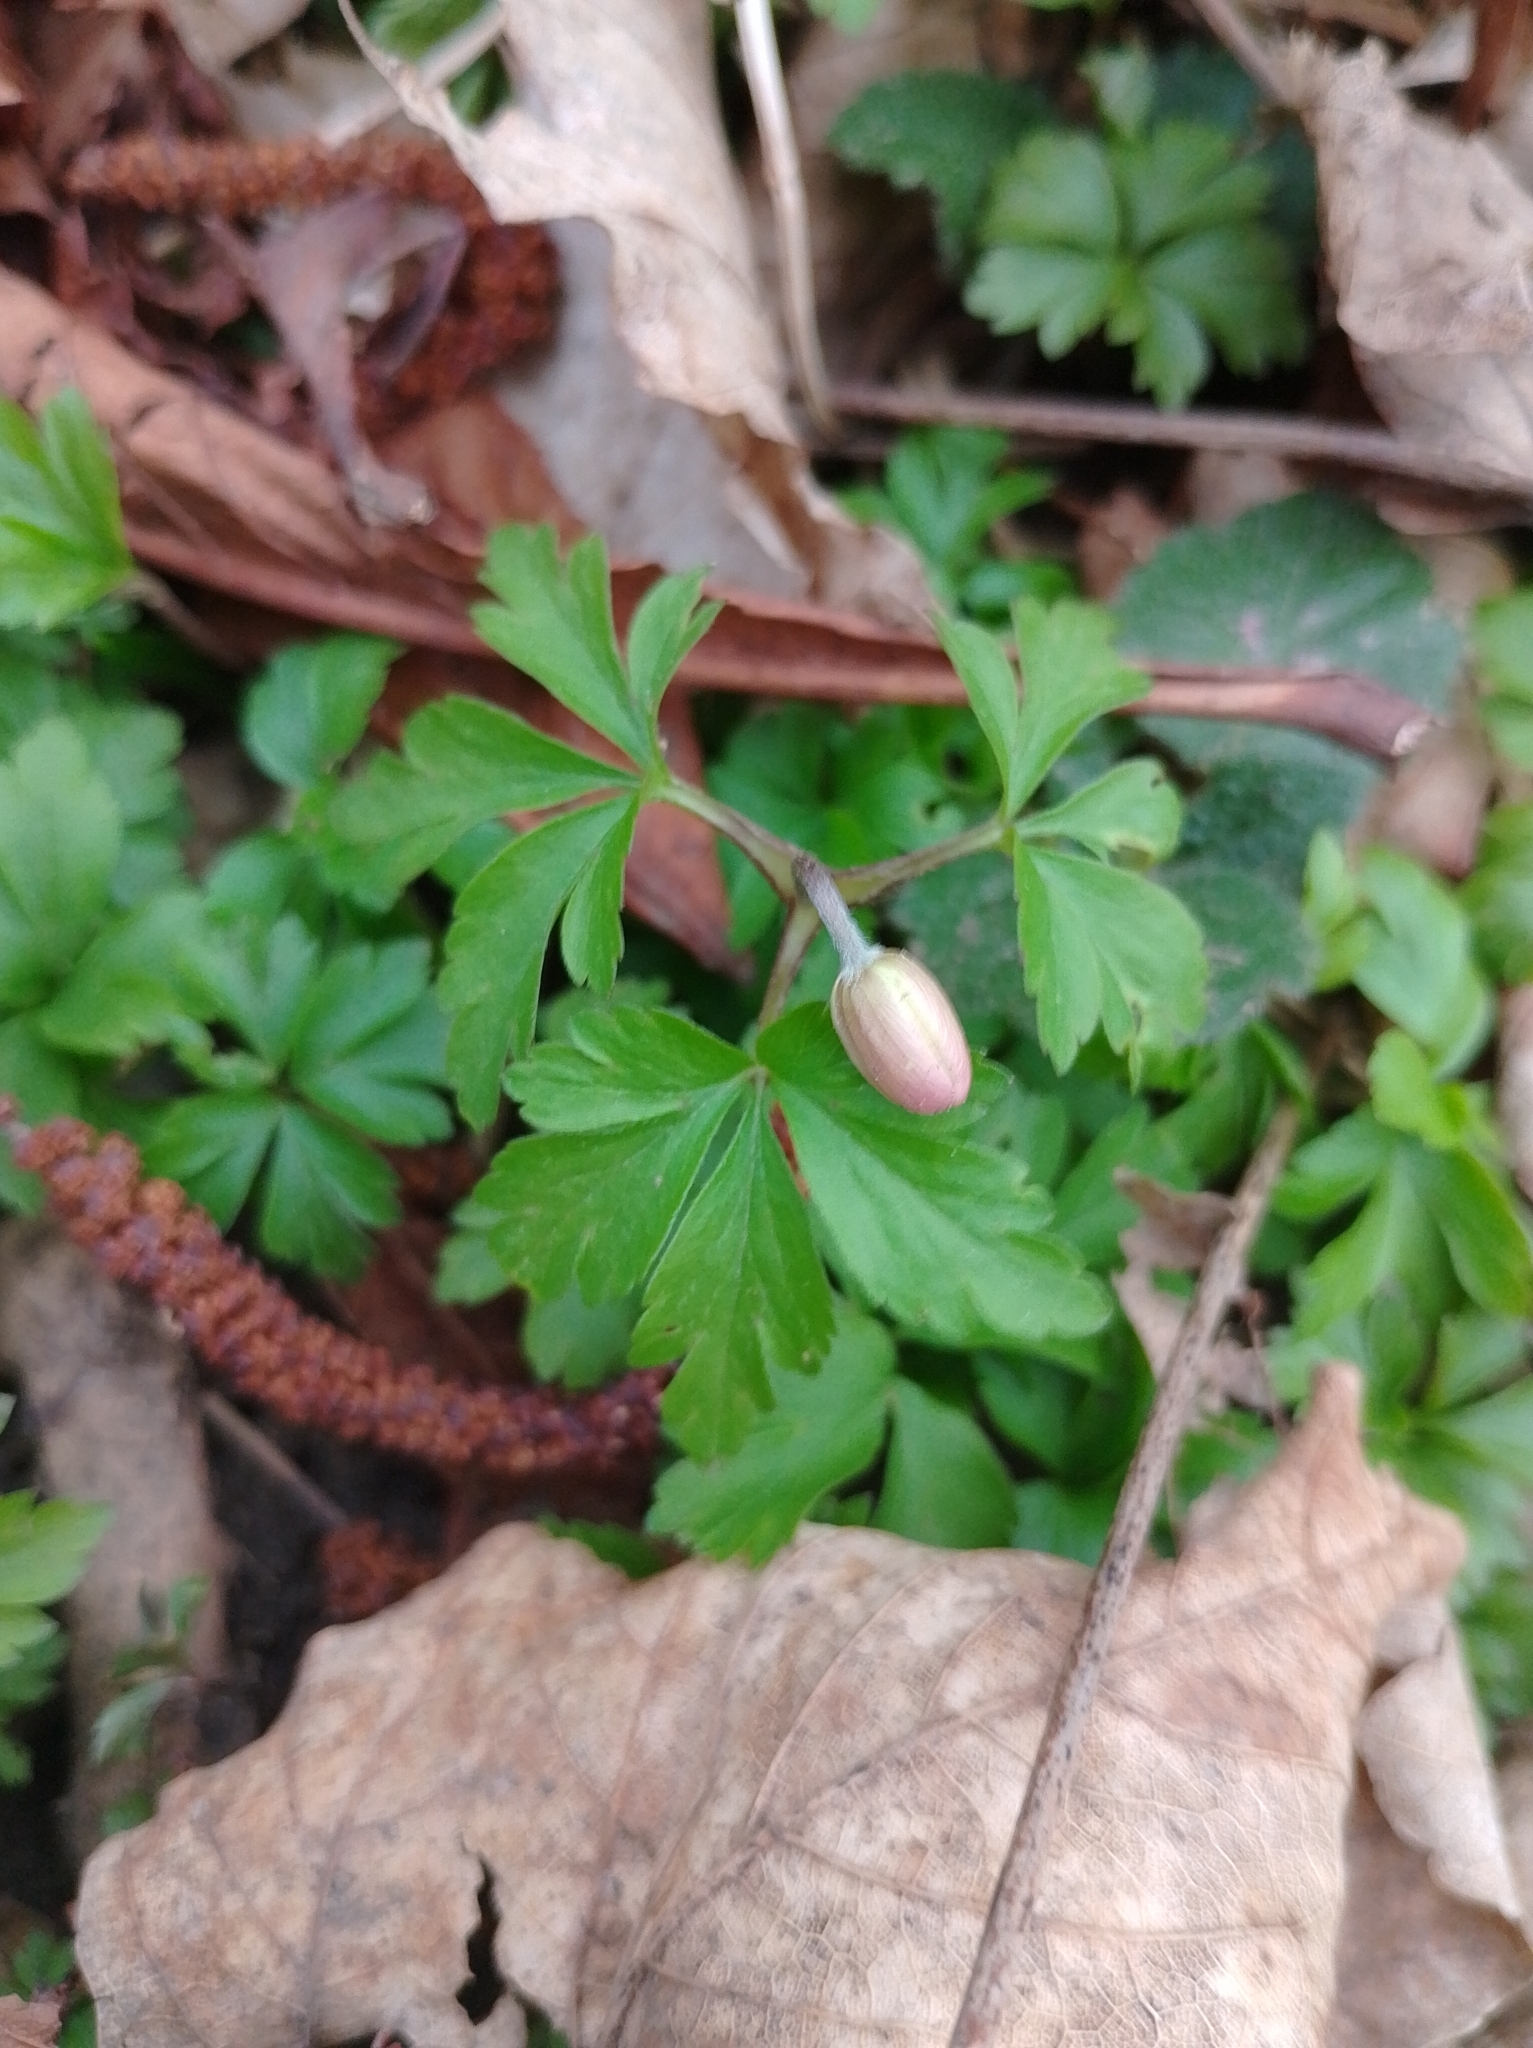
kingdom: Plantae
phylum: Tracheophyta
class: Magnoliopsida
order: Ranunculales
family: Ranunculaceae
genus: Anemone
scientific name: Anemone nemorosa
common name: Wood anemone
